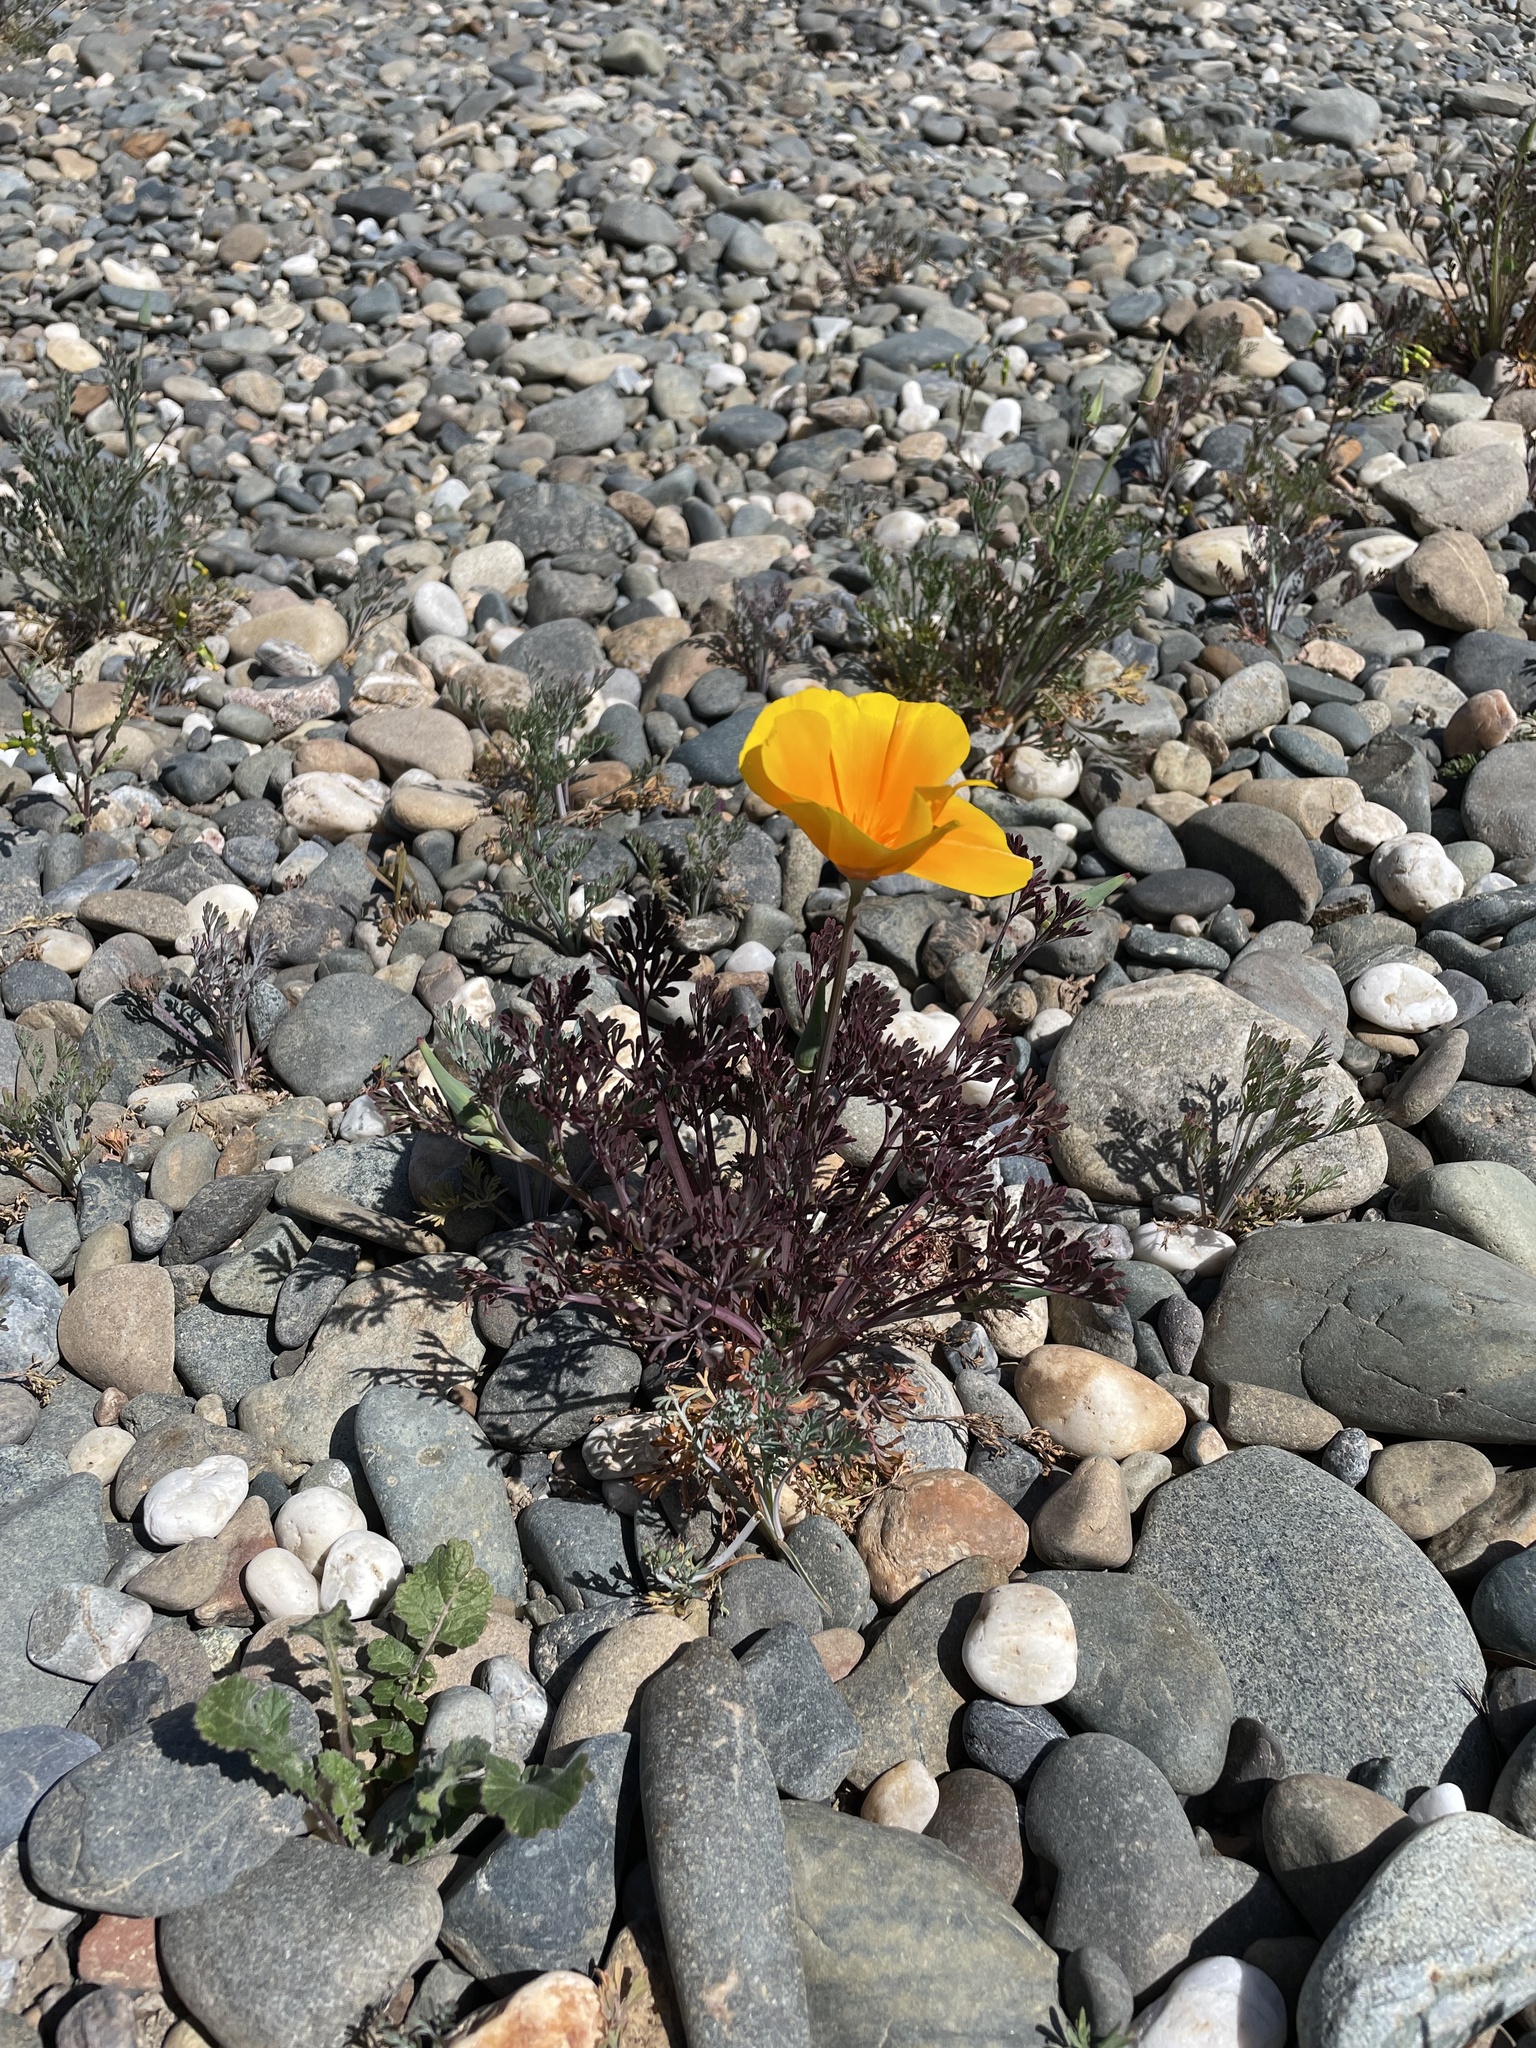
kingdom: Plantae
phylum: Tracheophyta
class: Magnoliopsida
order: Ranunculales
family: Papaveraceae
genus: Eschscholzia
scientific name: Eschscholzia californica
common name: California poppy
